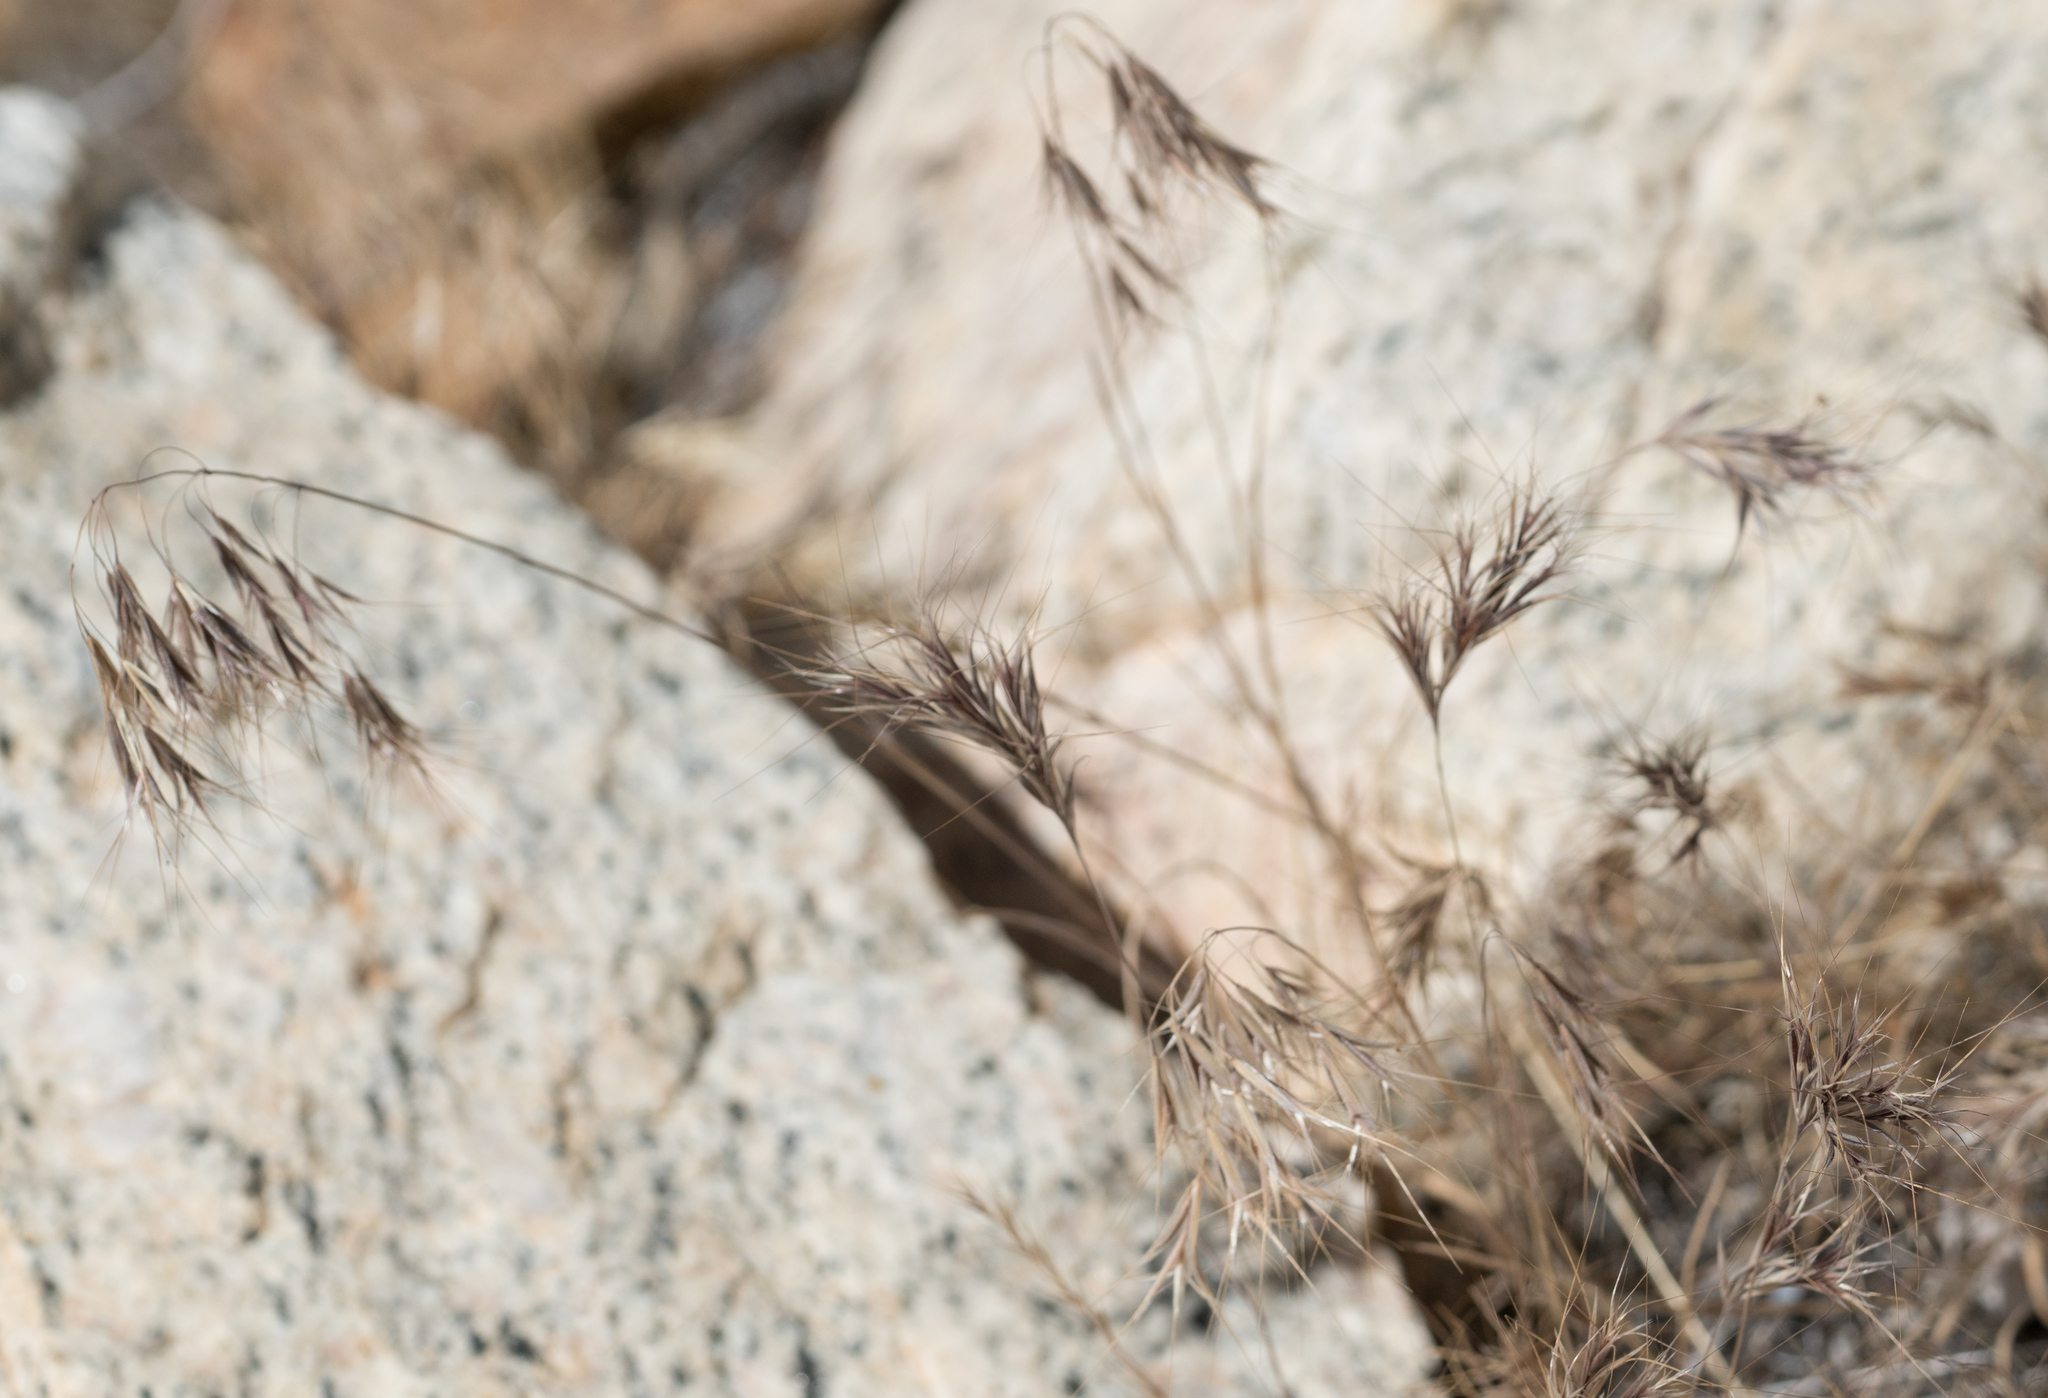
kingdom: Plantae
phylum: Tracheophyta
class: Liliopsida
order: Poales
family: Poaceae
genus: Bromus
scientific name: Bromus tectorum
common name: Cheatgrass
